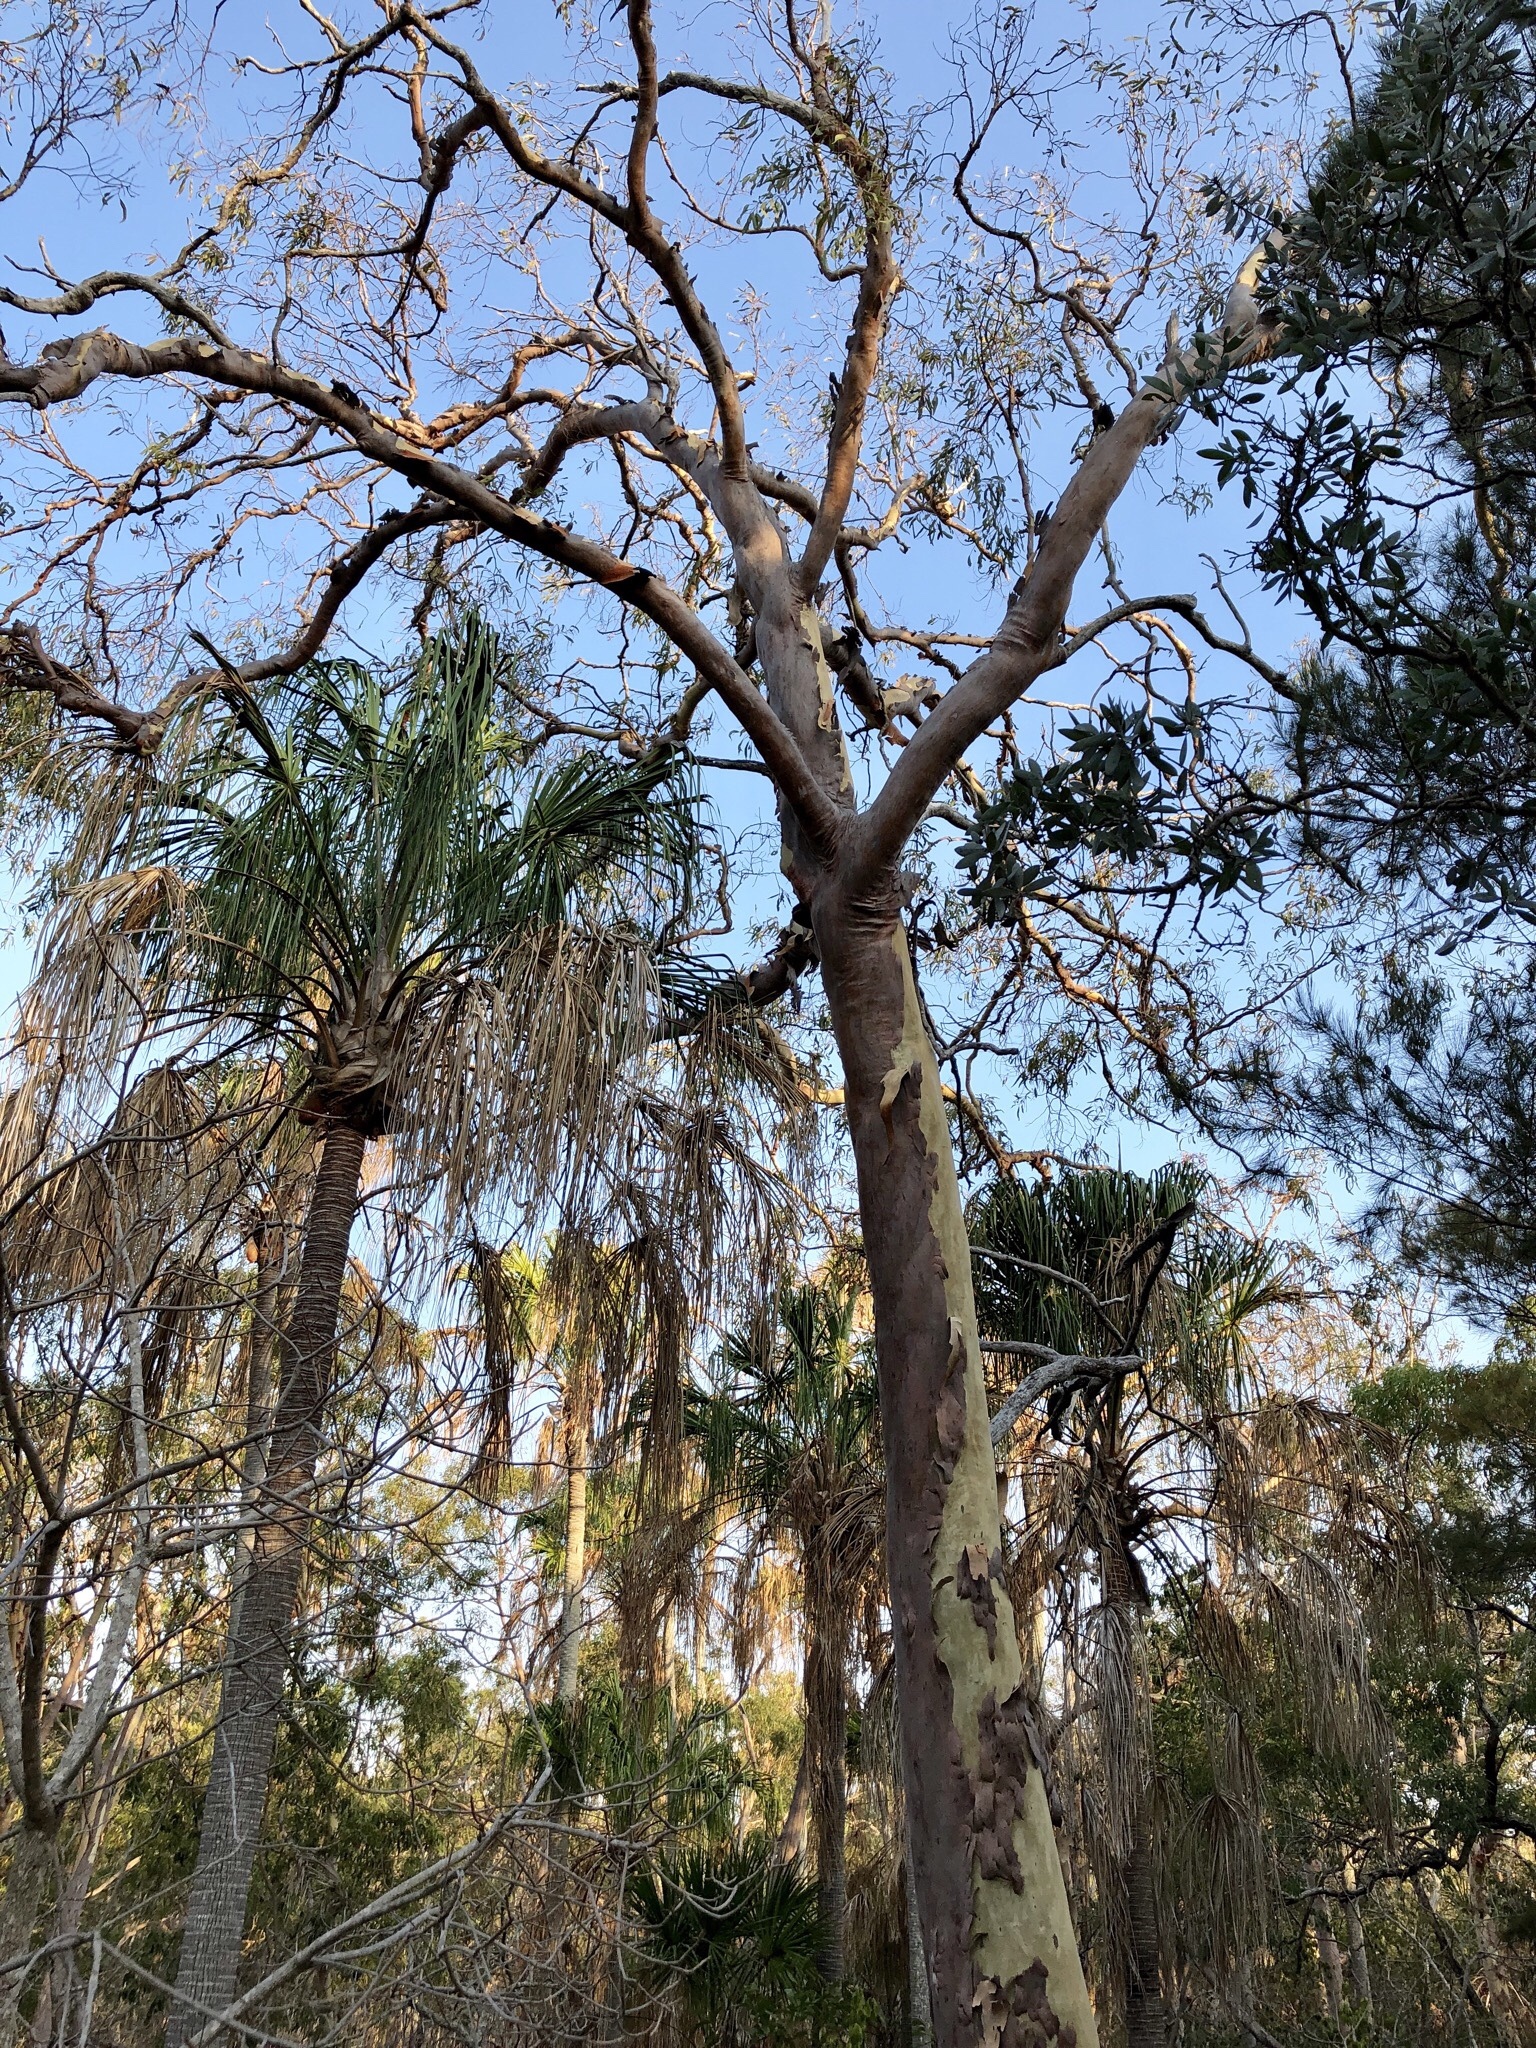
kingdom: Plantae
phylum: Tracheophyta
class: Magnoliopsida
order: Myrtales
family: Myrtaceae
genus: Corymbia
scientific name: Corymbia citriodora
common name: Lemonscented gum
